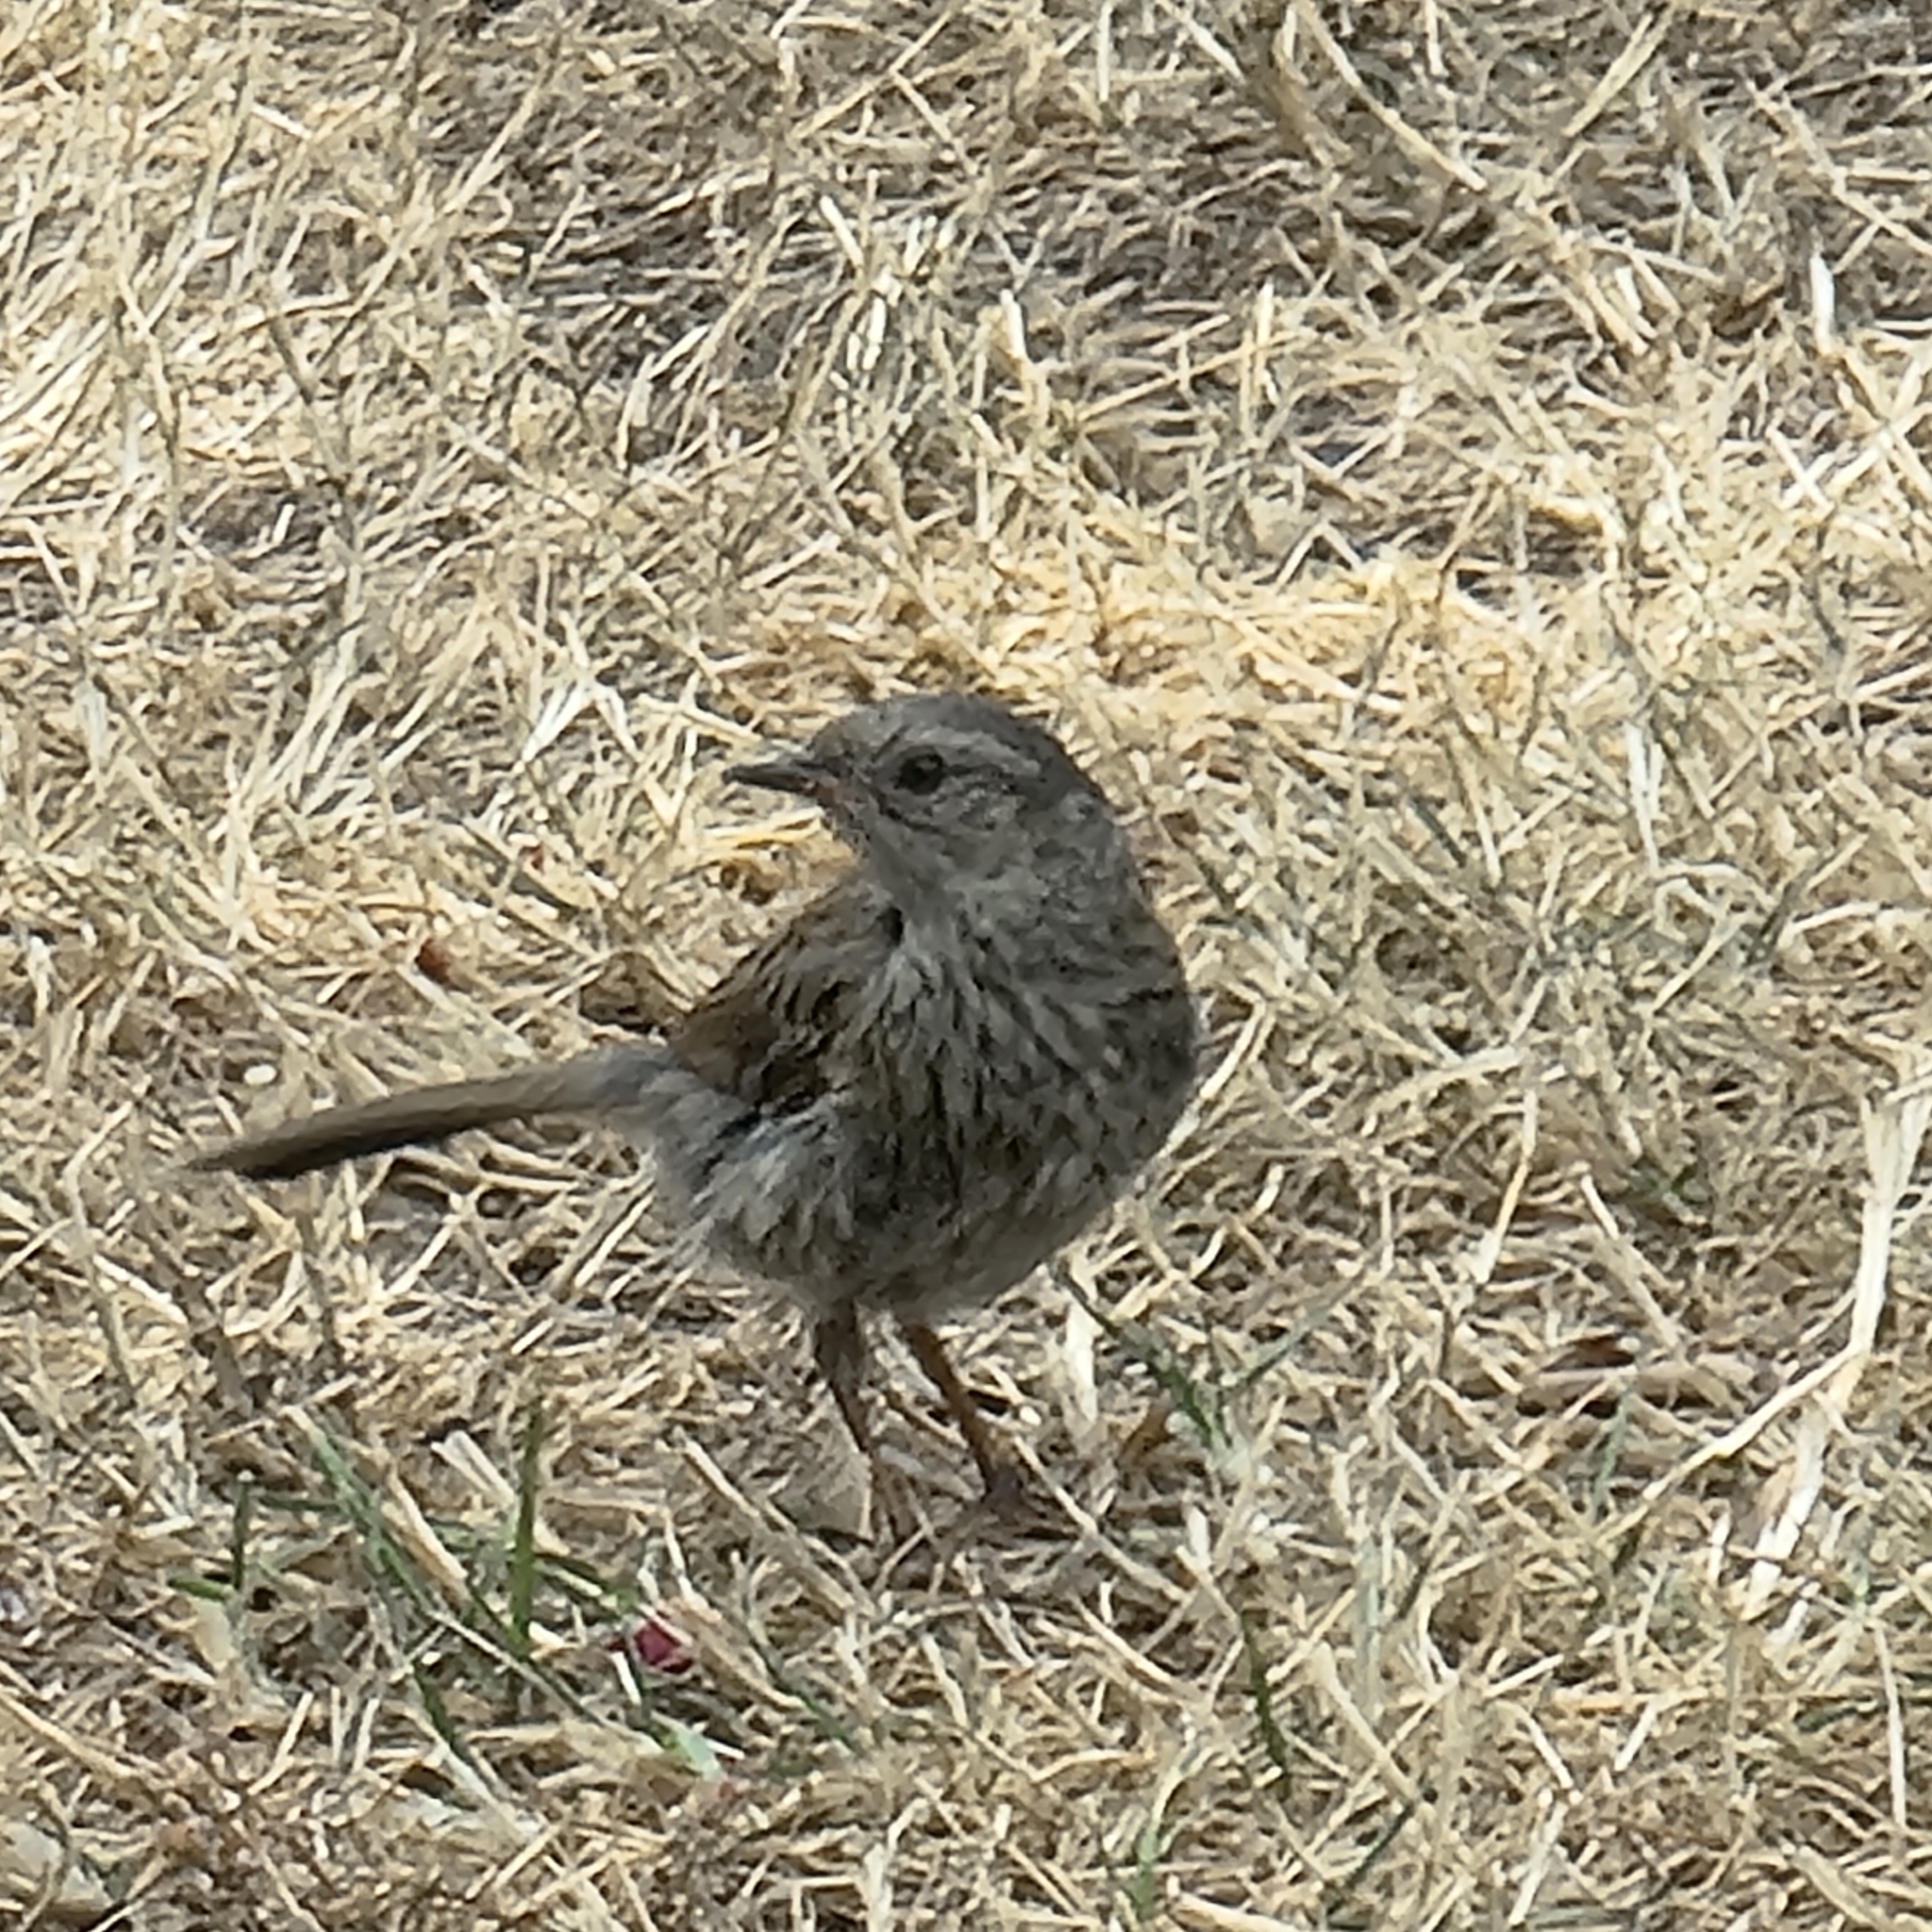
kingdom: Animalia
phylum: Chordata
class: Aves
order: Passeriformes
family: Prunellidae
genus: Prunella
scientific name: Prunella modularis
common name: Dunnock
